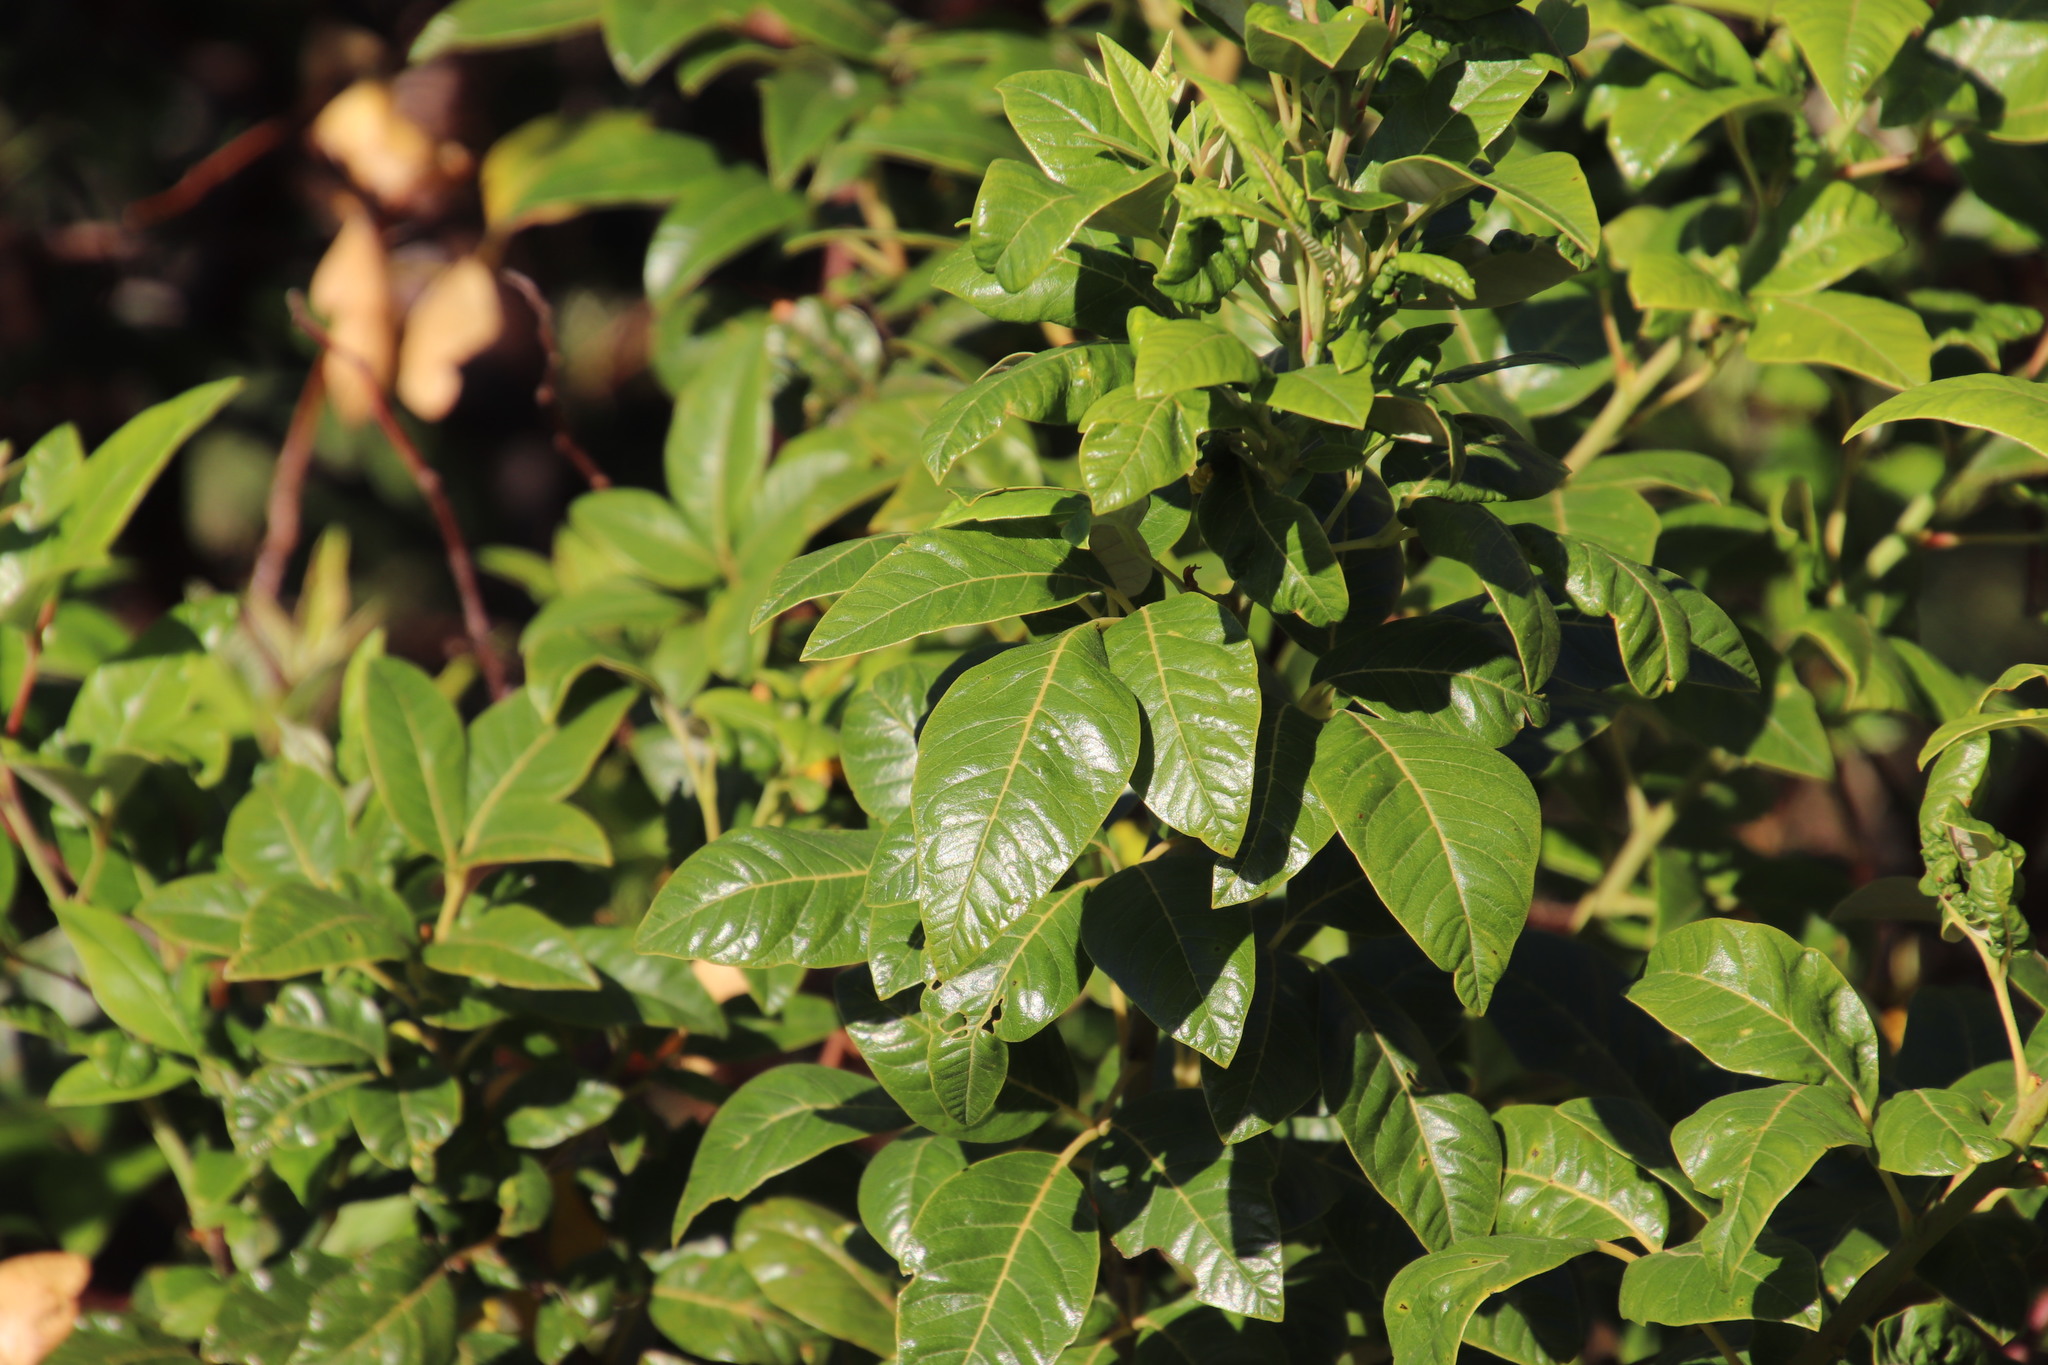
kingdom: Plantae
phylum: Tracheophyta
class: Magnoliopsida
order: Sapindales
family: Anacardiaceae
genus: Searsia
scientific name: Searsia tomentosa
